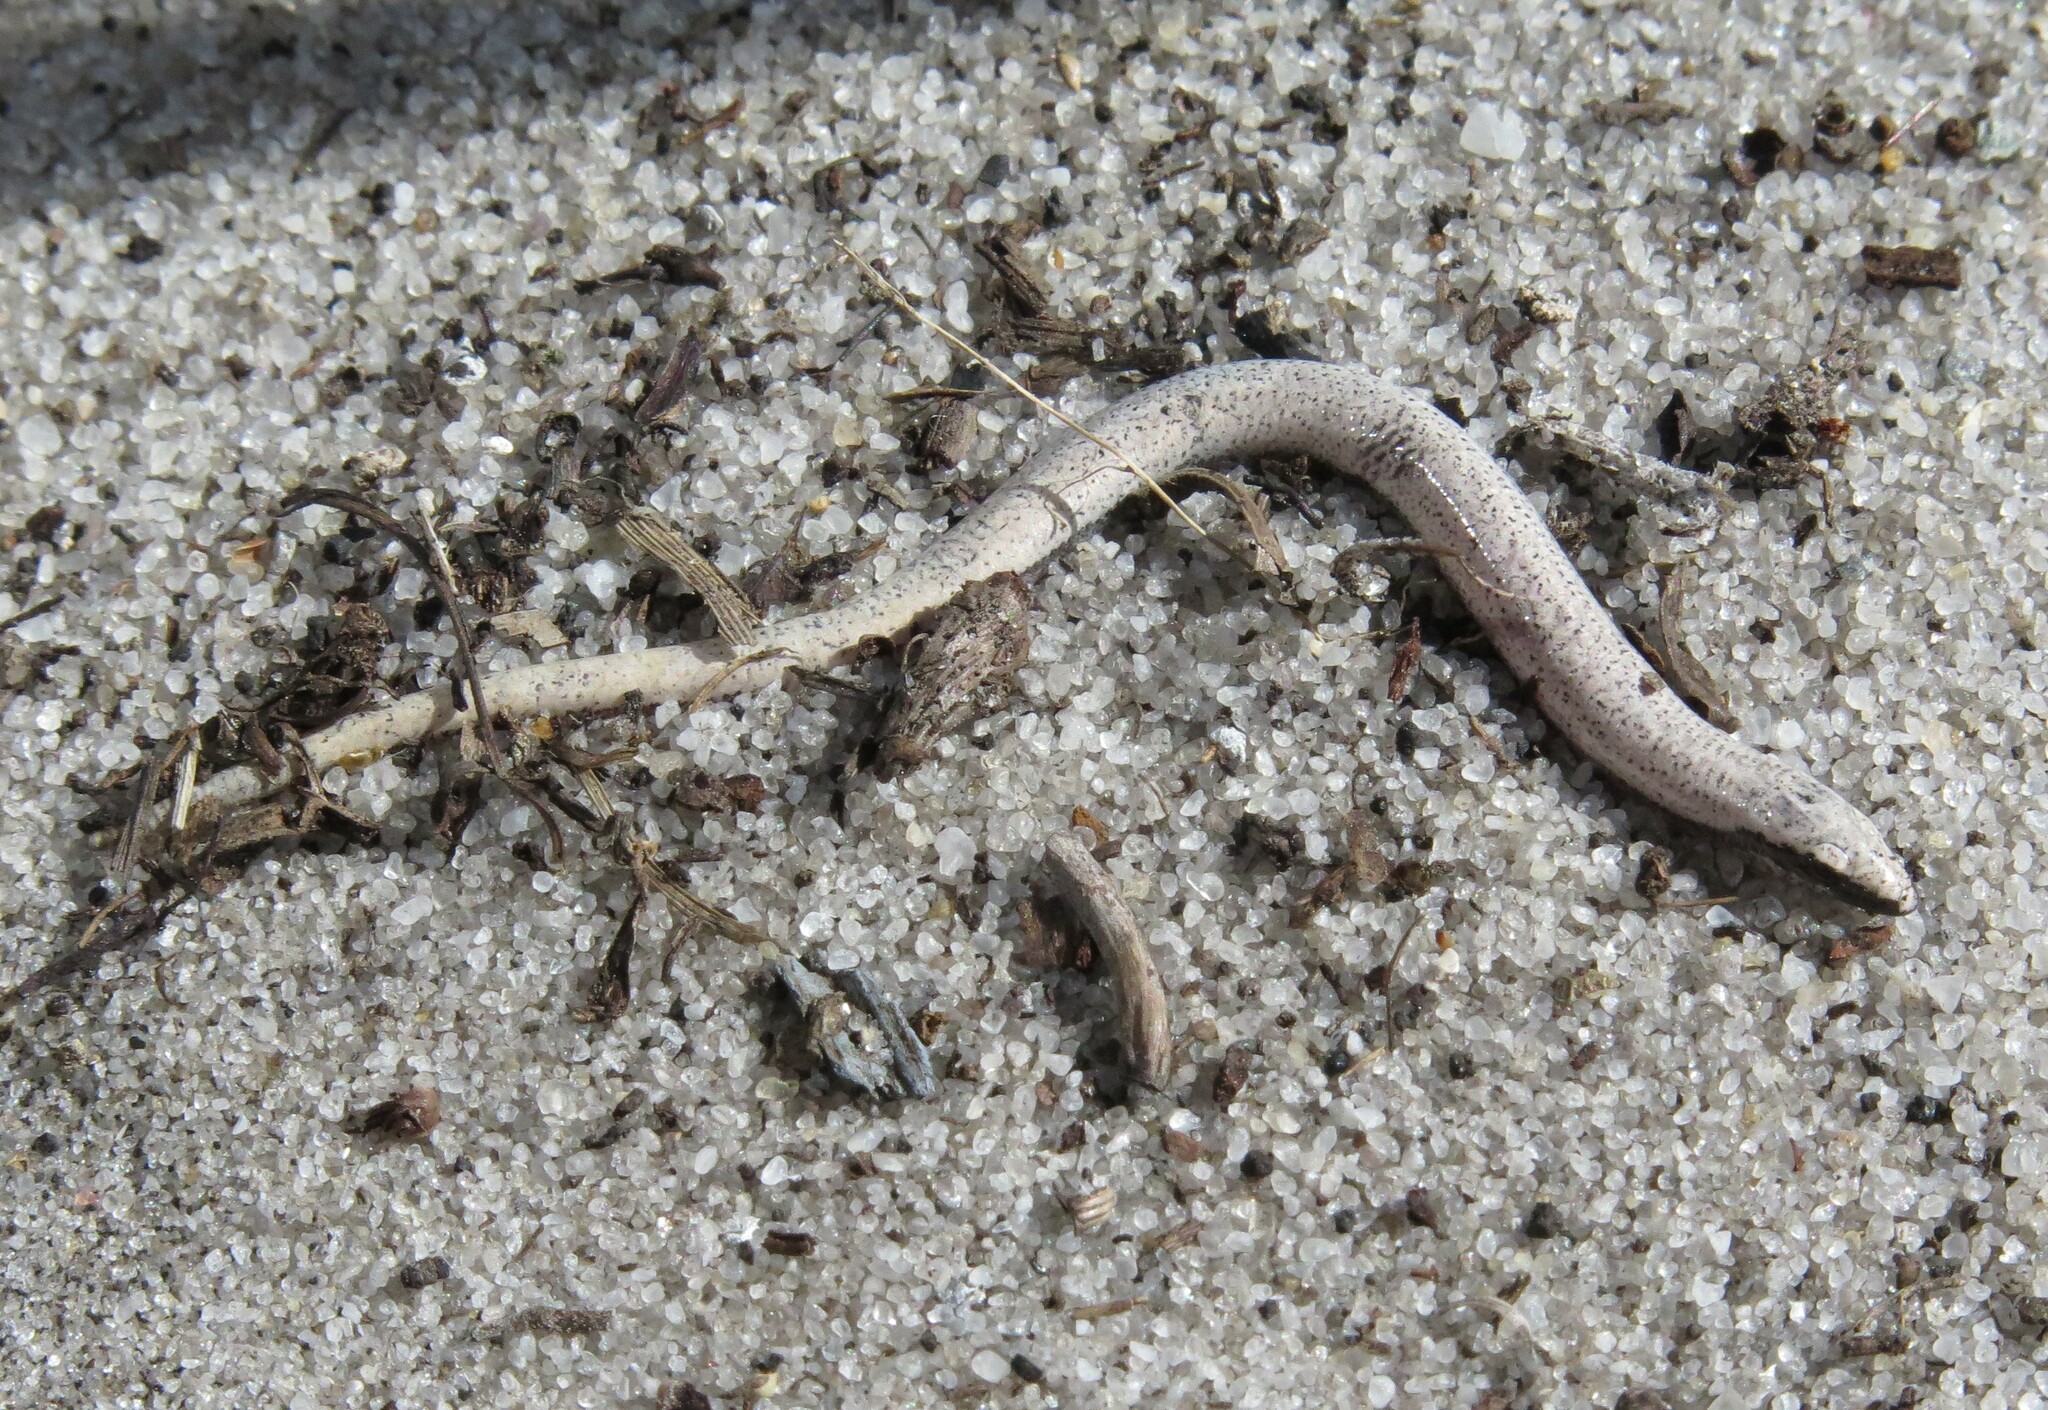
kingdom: Animalia
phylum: Chordata
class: Squamata
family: Scincidae
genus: Plestiodon
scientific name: Plestiodon reynoldsi
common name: Florida sand skink
